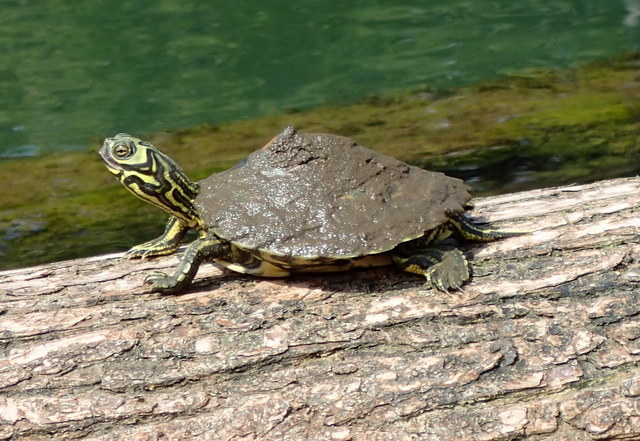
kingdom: Animalia
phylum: Chordata
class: Testudines
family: Emydidae
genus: Graptemys
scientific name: Graptemys barbouri
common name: Barbour's map turtle
